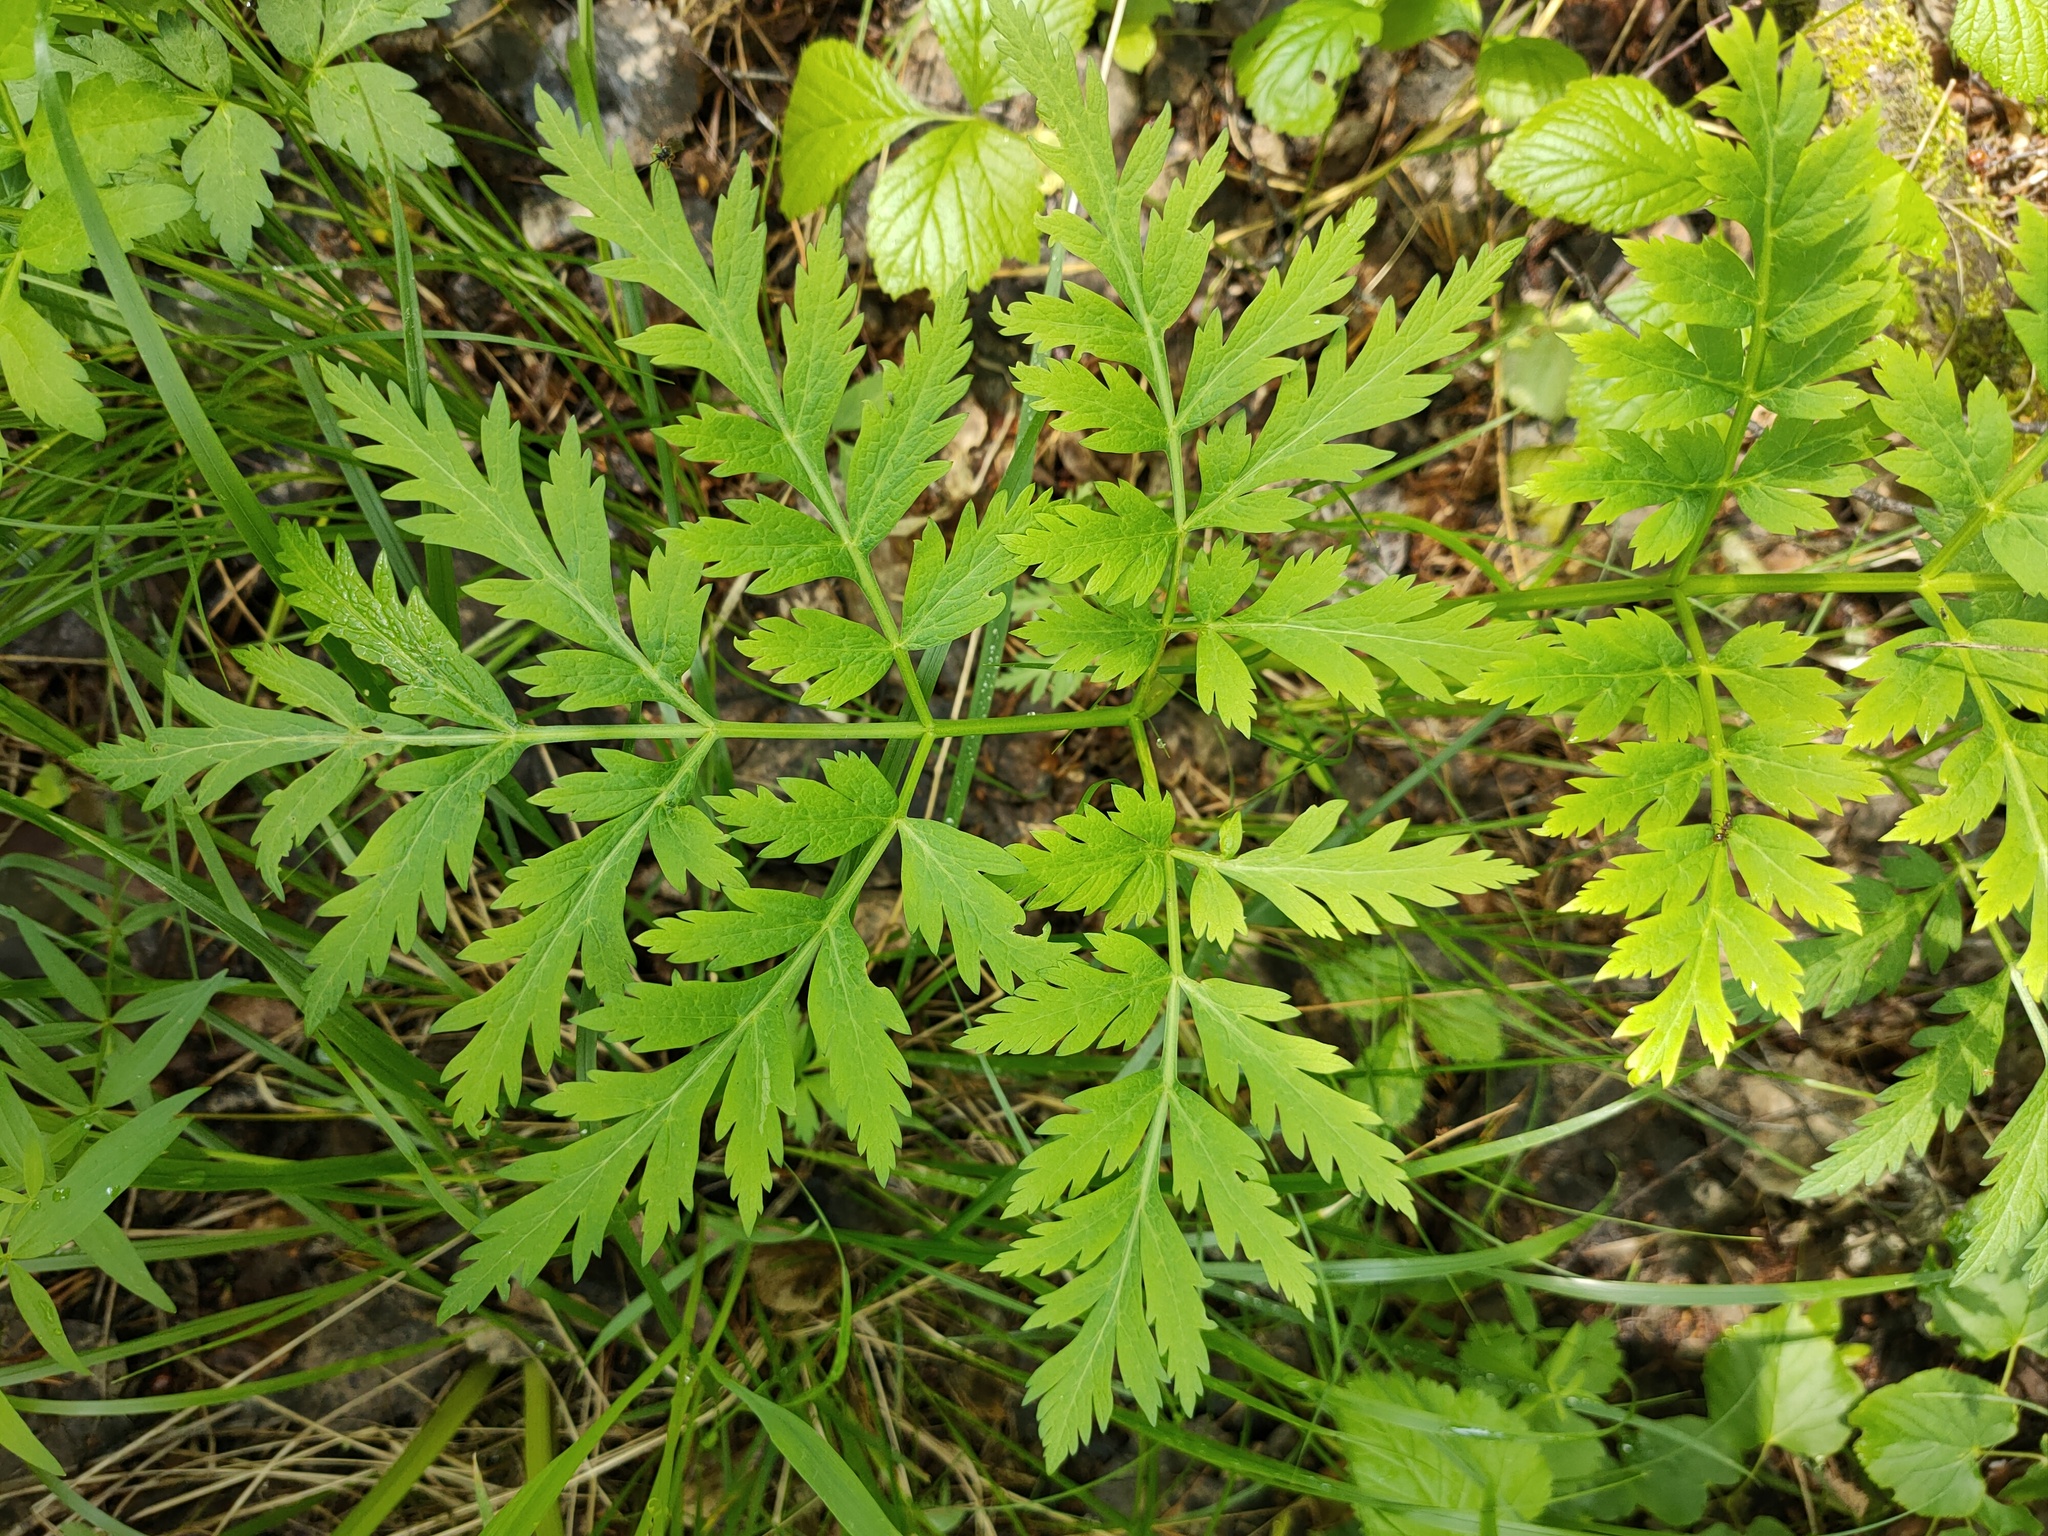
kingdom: Plantae
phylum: Tracheophyta
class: Magnoliopsida
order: Apiales
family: Apiaceae
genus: Pleurospermum
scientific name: Pleurospermum uralense
